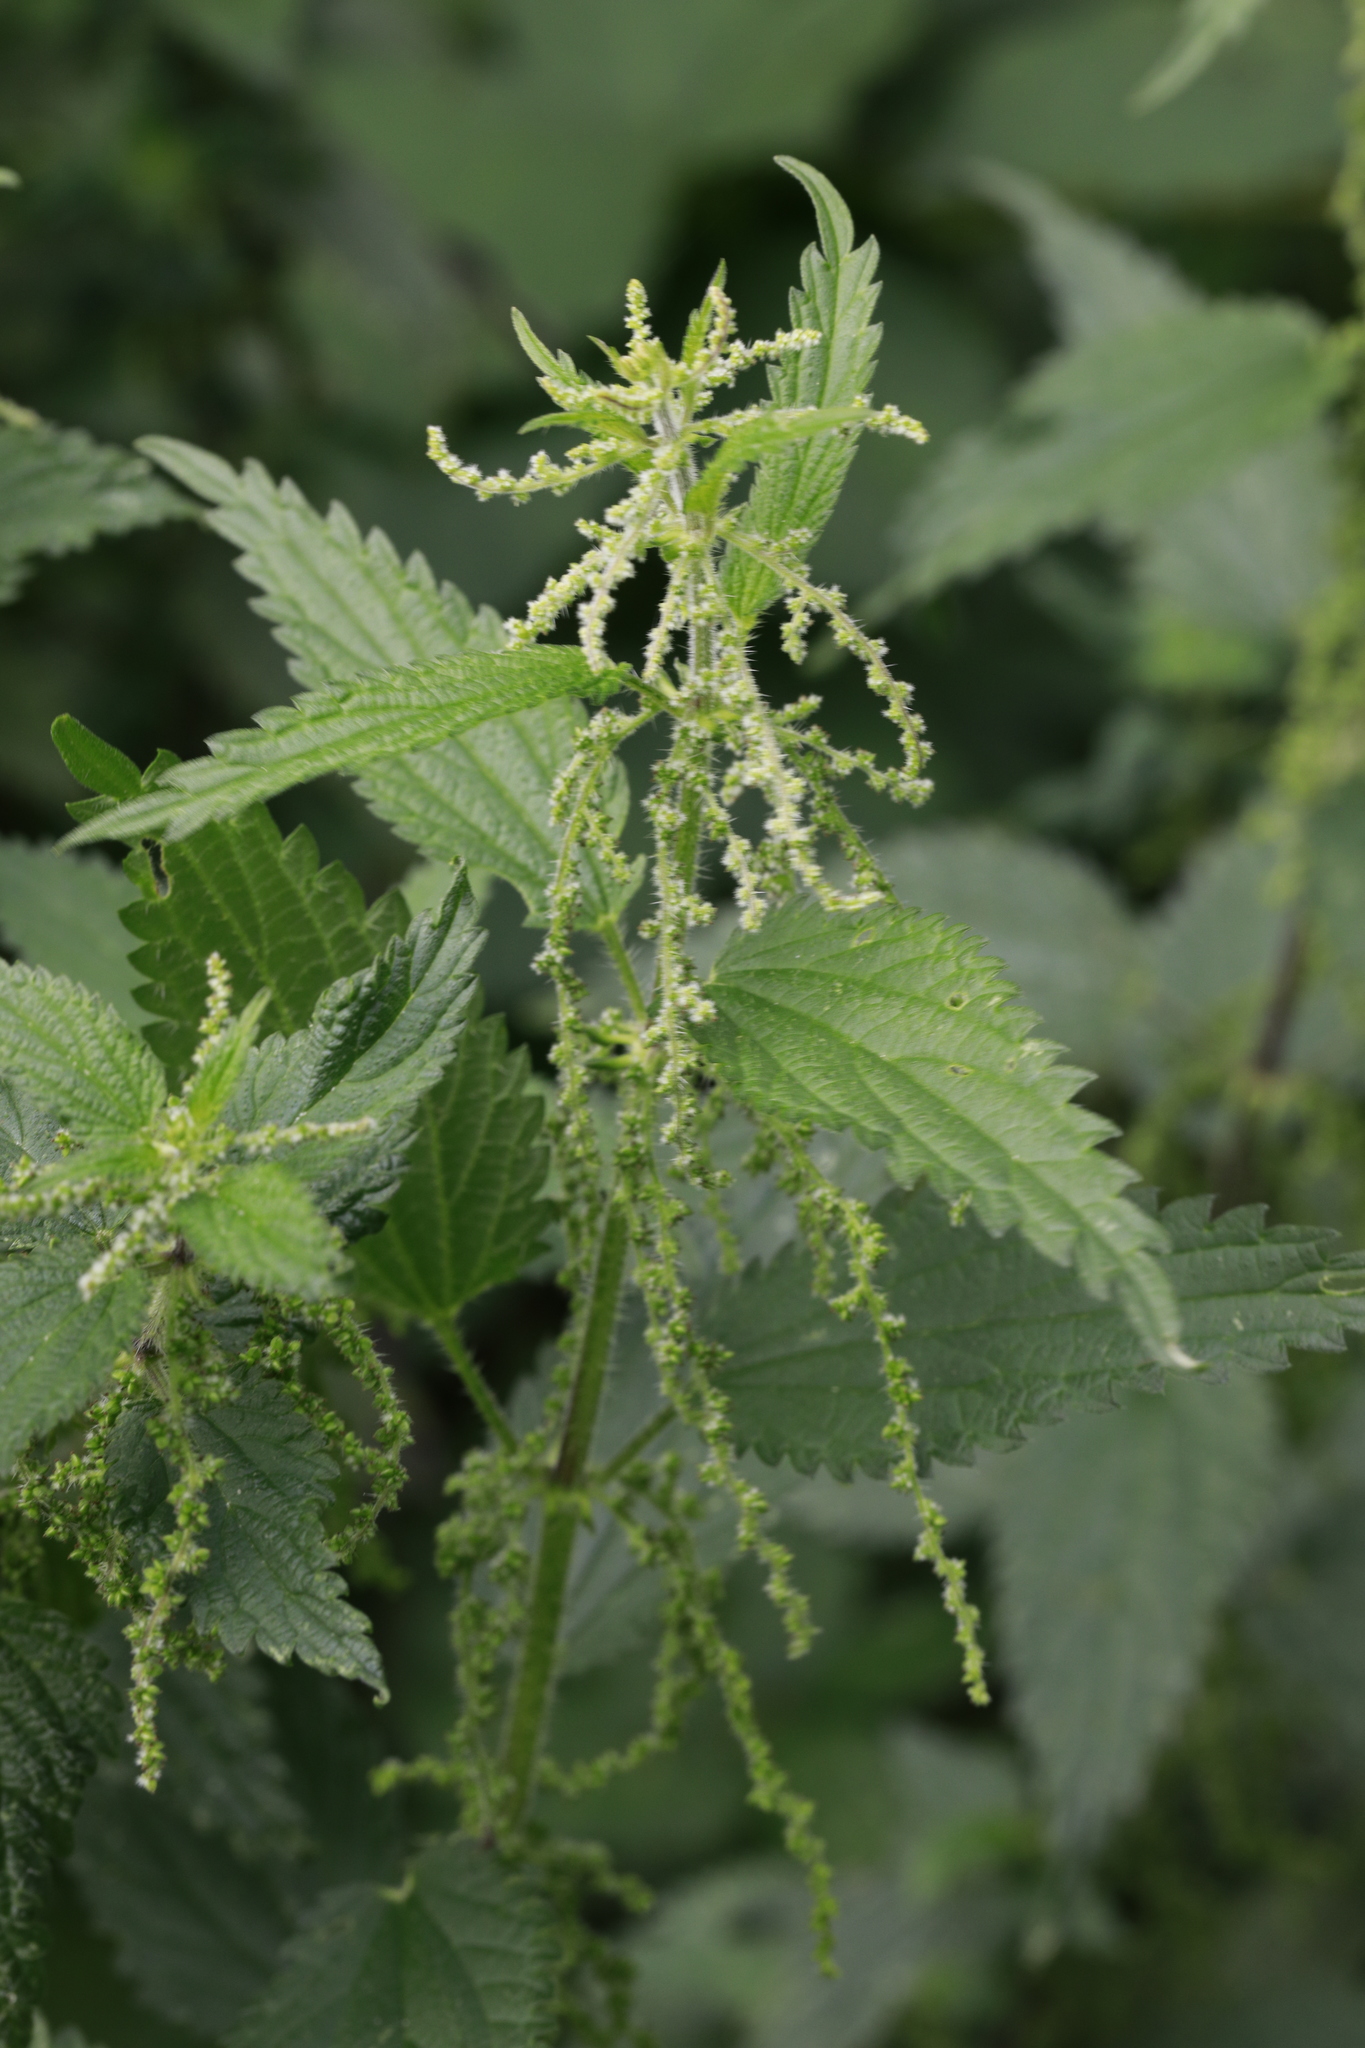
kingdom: Plantae
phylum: Tracheophyta
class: Magnoliopsida
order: Rosales
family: Urticaceae
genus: Urtica
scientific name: Urtica dioica
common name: Common nettle
